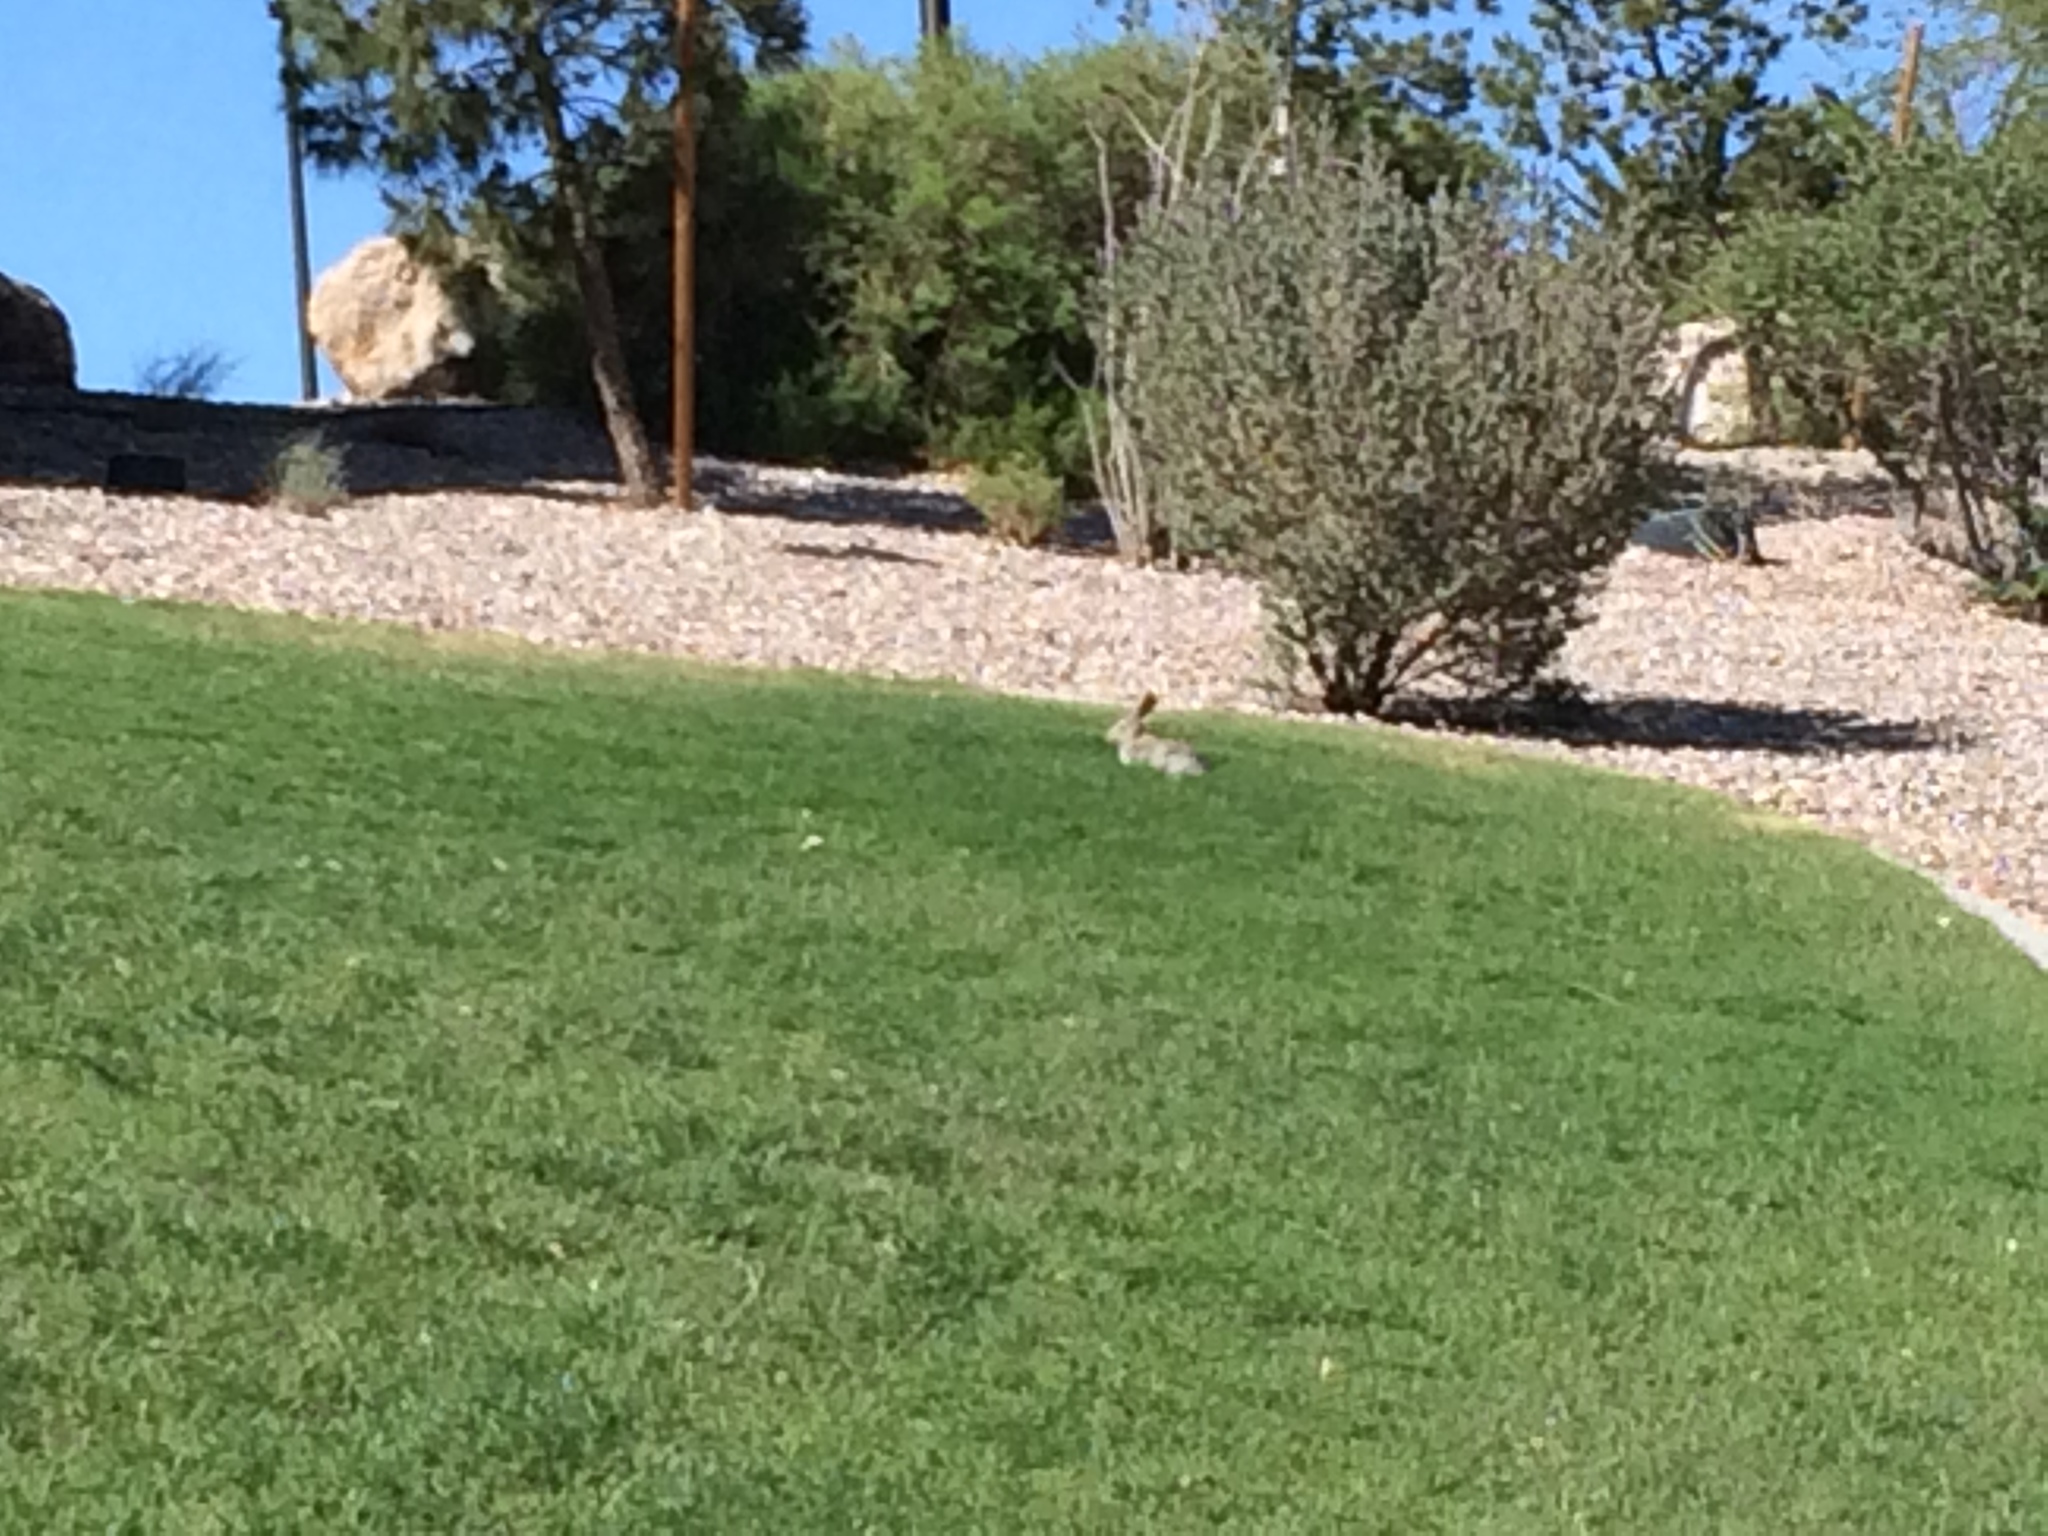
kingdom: Animalia
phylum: Chordata
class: Mammalia
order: Lagomorpha
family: Leporidae
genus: Sylvilagus
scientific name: Sylvilagus audubonii
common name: Desert cottontail
